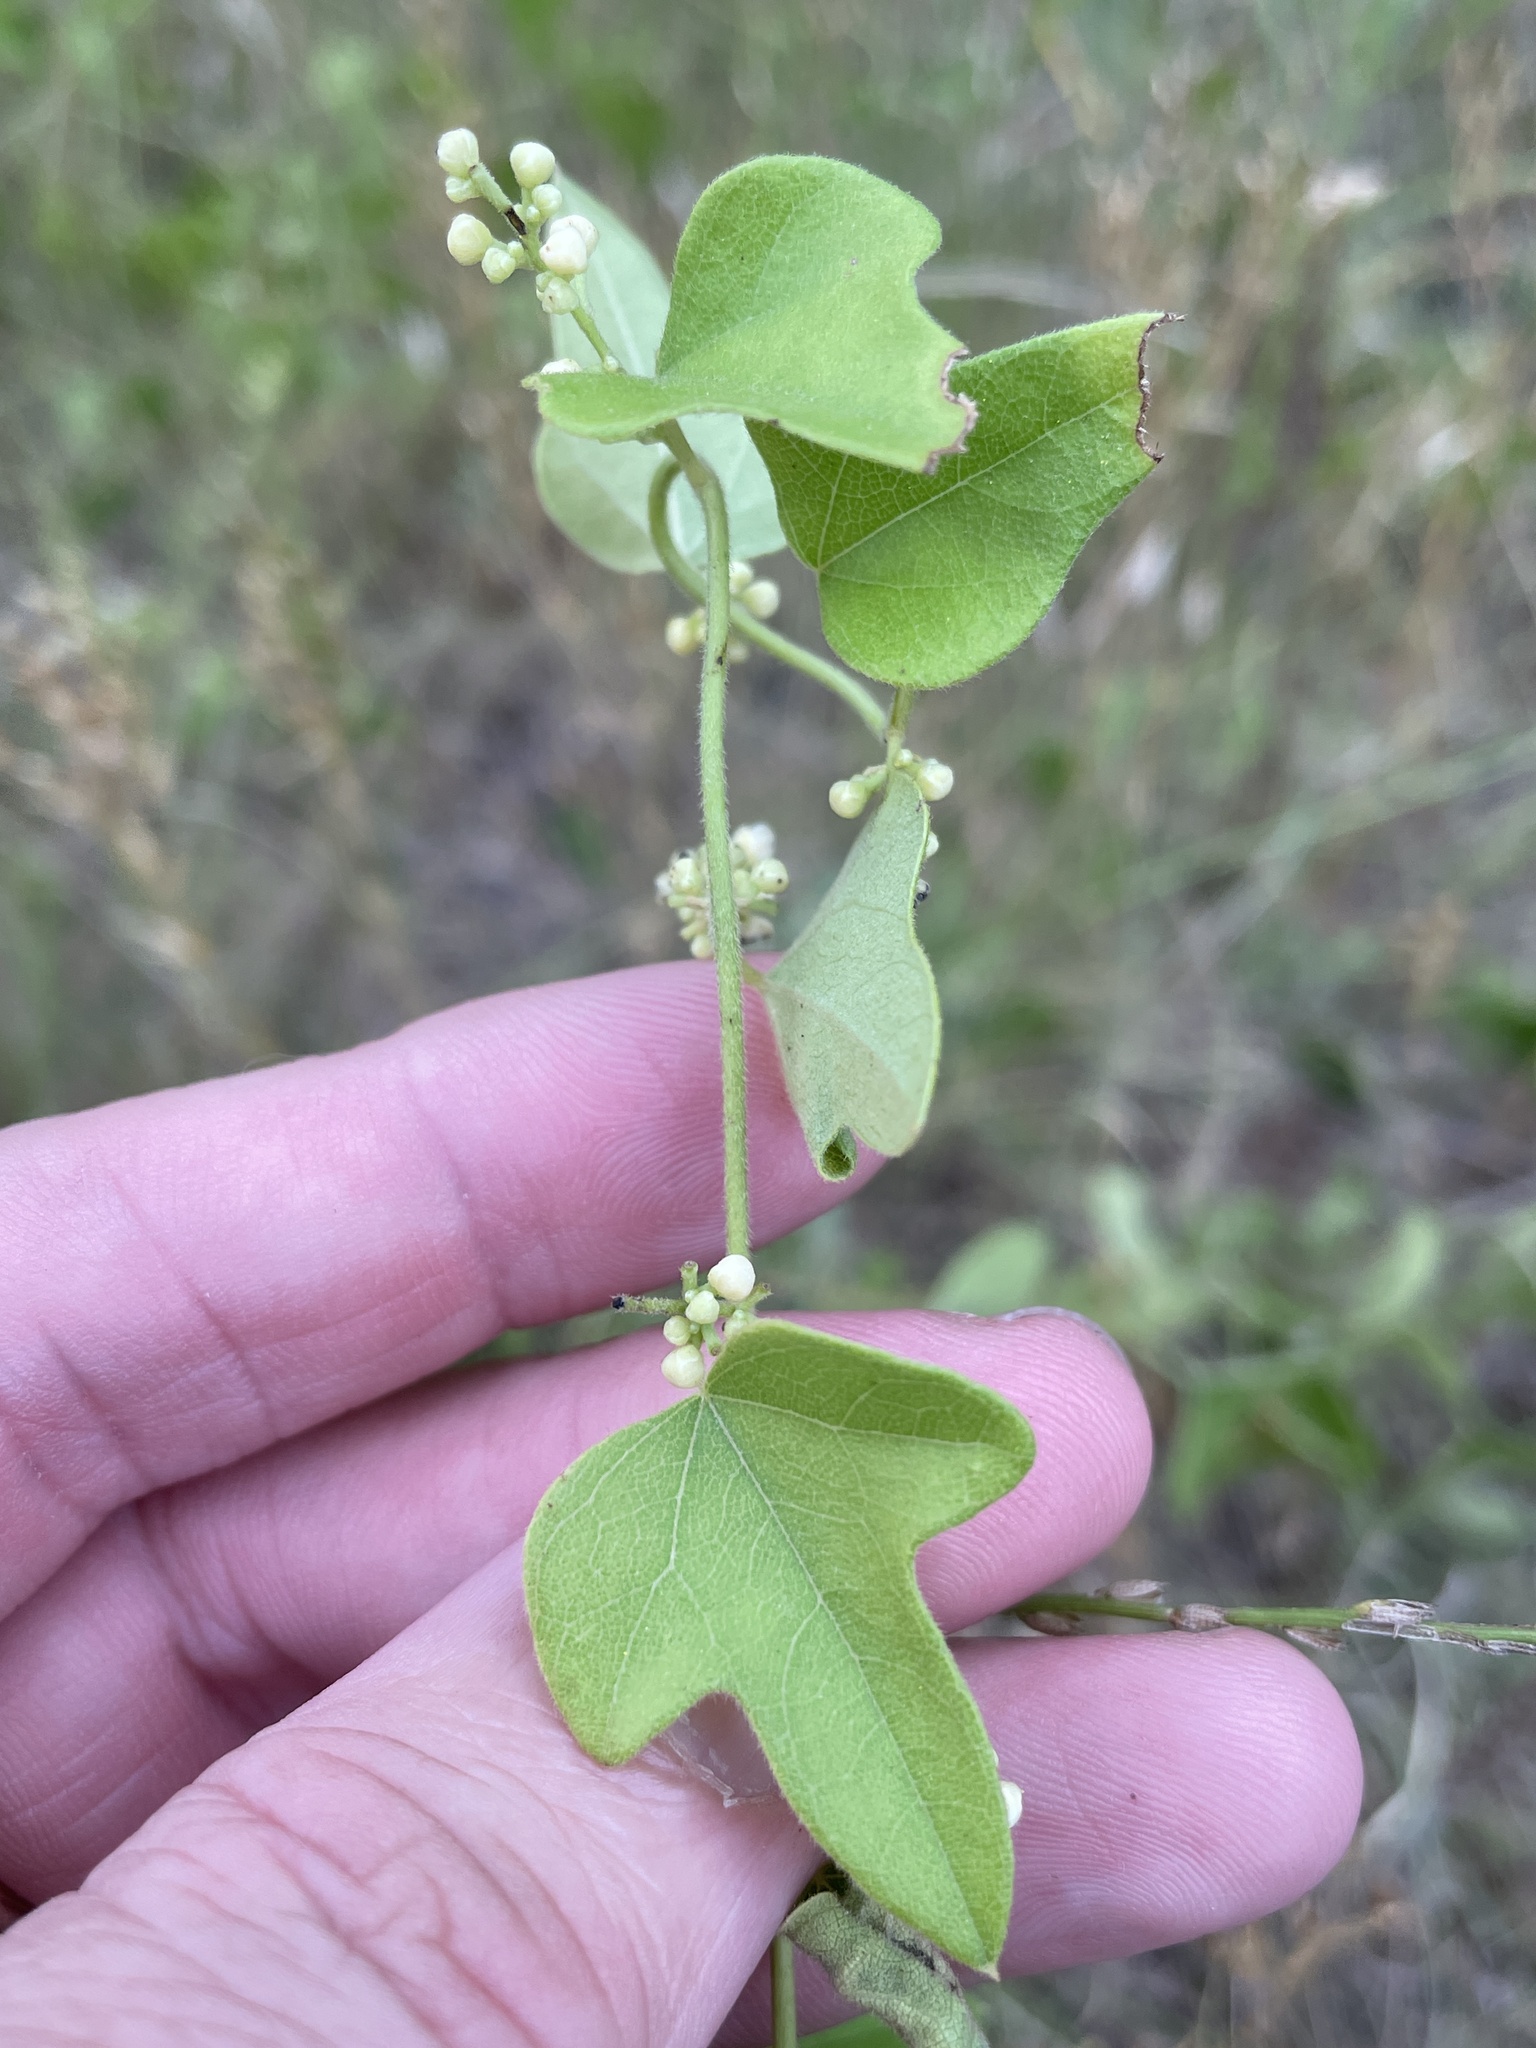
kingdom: Plantae
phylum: Tracheophyta
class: Magnoliopsida
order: Ranunculales
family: Menispermaceae
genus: Cocculus
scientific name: Cocculus carolinus
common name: Carolina moonseed
